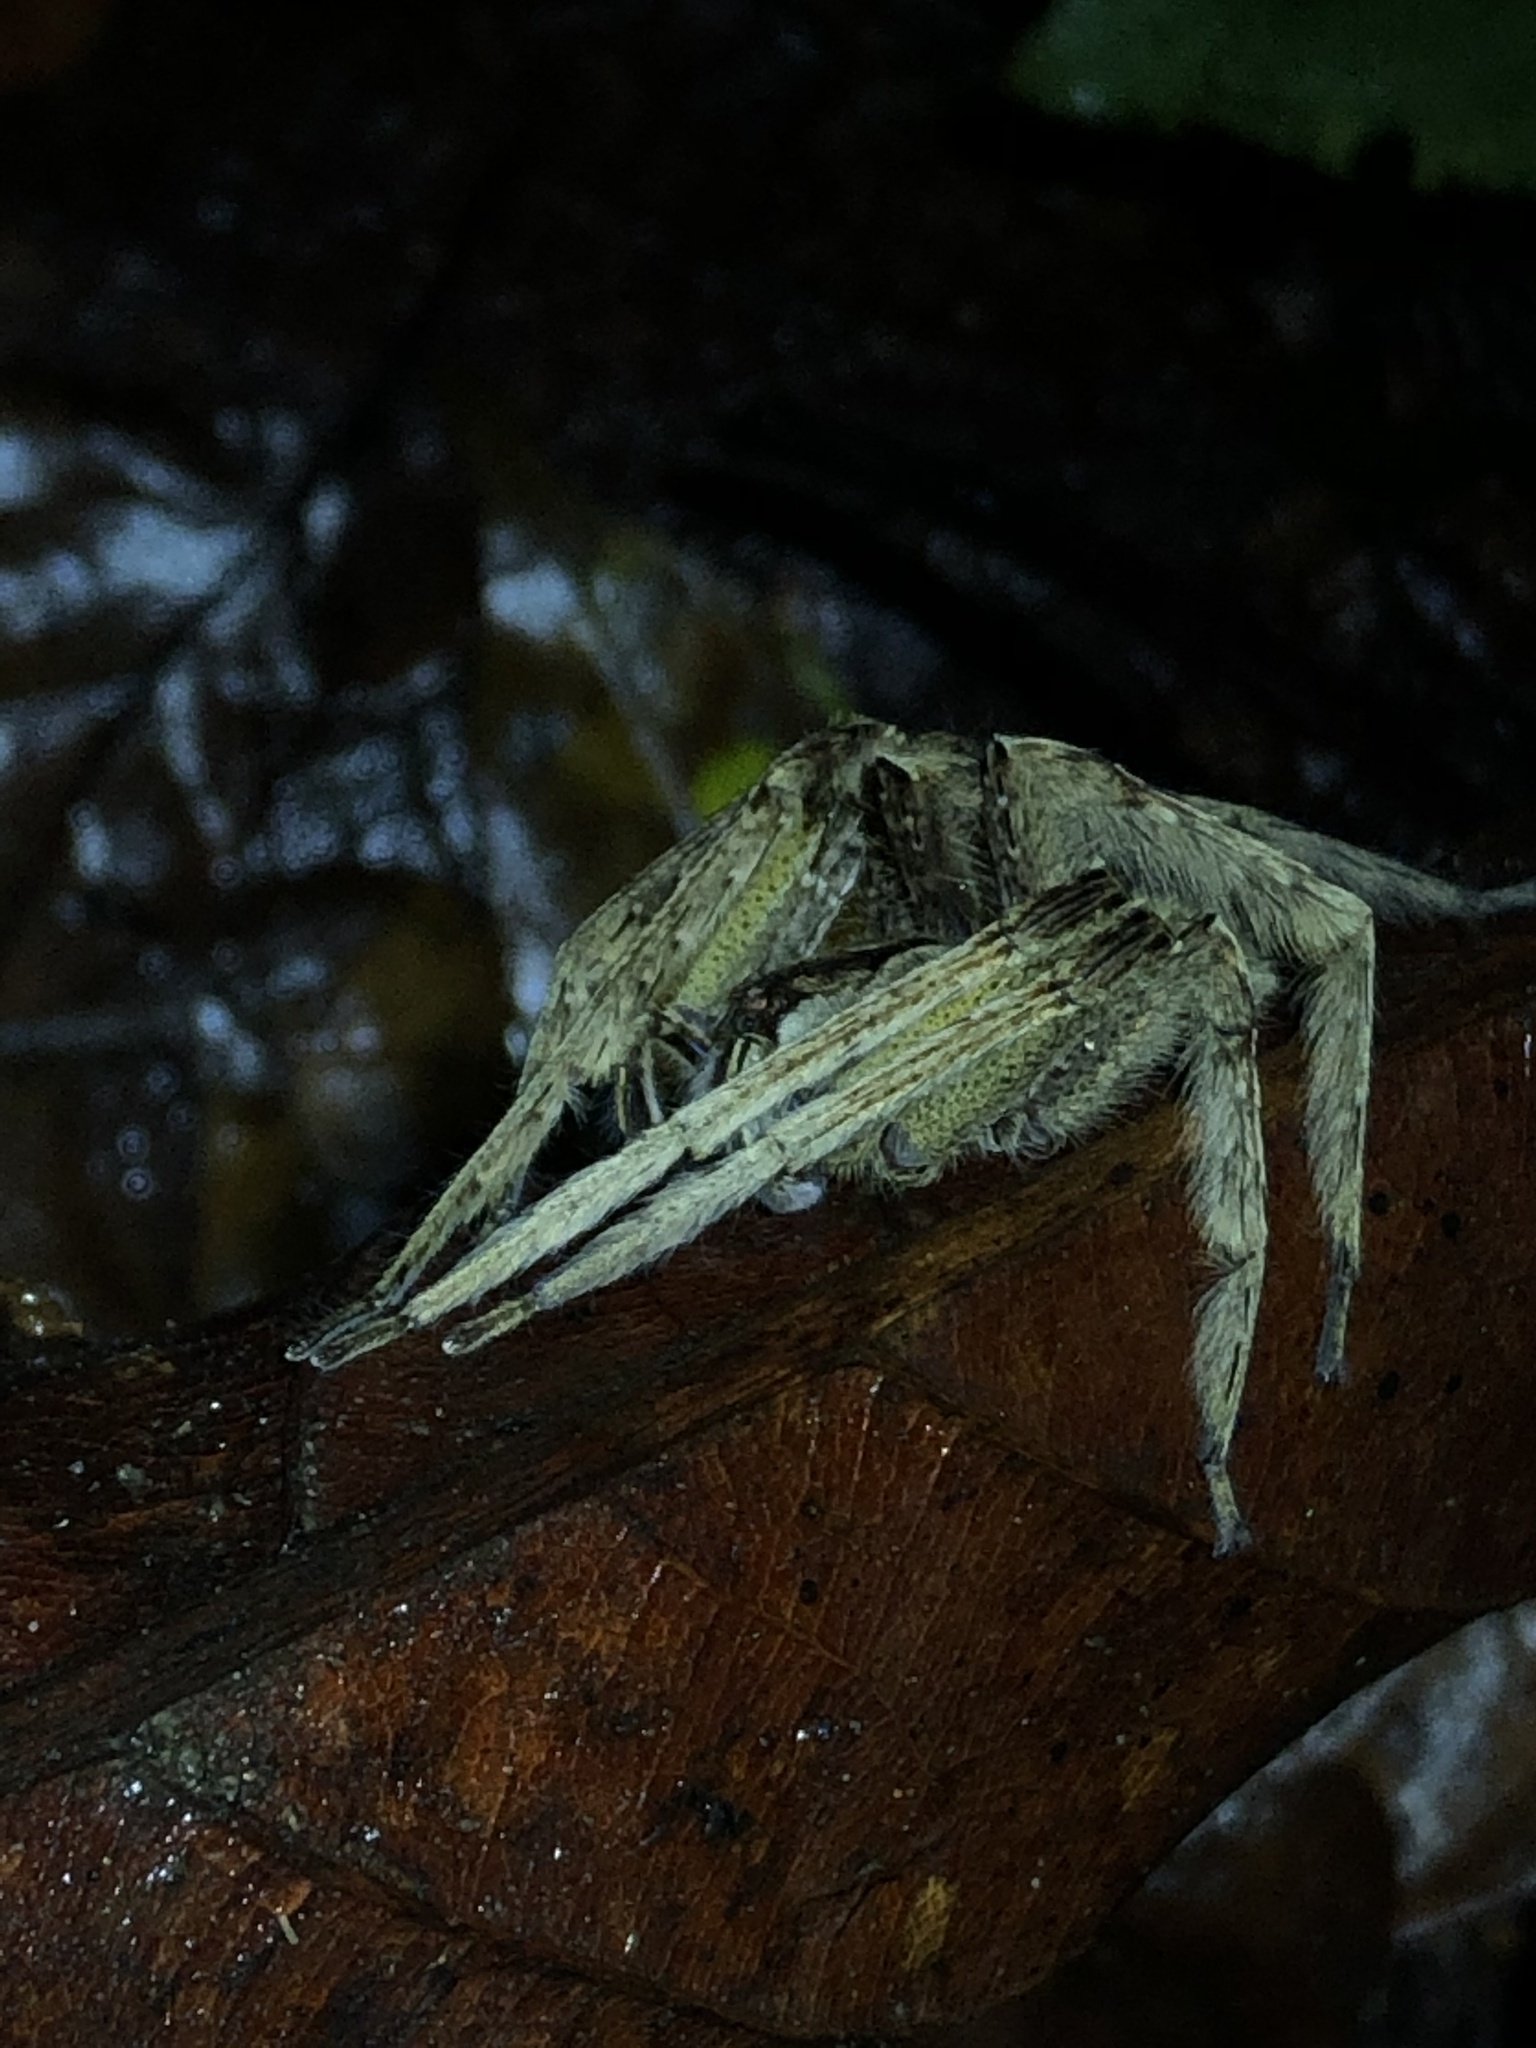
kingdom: Animalia
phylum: Arthropoda
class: Arachnida
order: Araneae
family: Ctenidae
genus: Phoneutria
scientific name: Phoneutria boliviensis
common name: Wandering spiders
